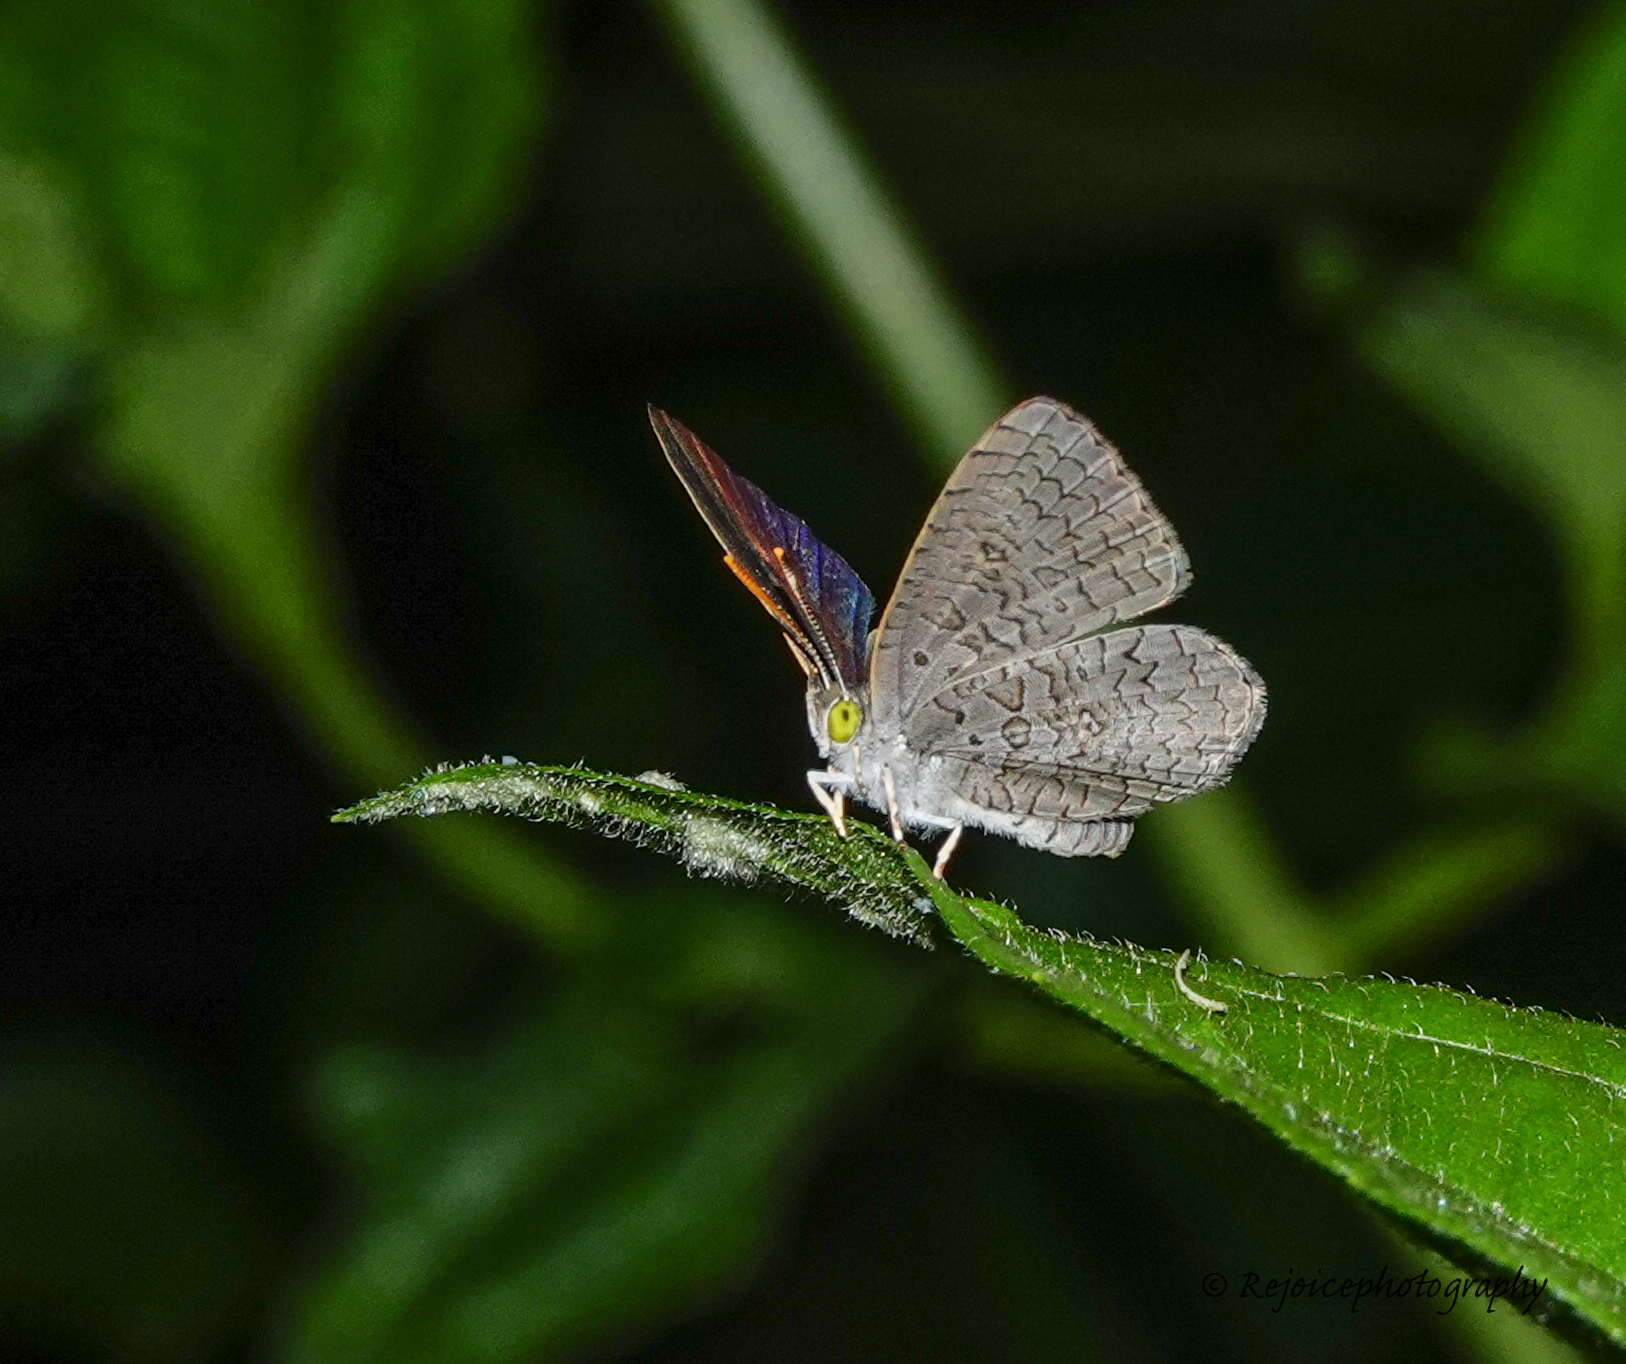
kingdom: Animalia
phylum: Arthropoda
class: Insecta
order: Lepidoptera
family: Lycaenidae
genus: Spalgis
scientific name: Spalgis epius
